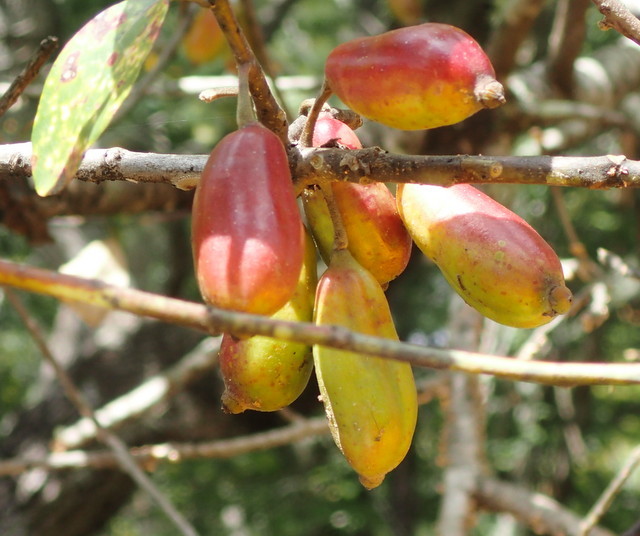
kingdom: Plantae
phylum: Tracheophyta
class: Magnoliopsida
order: Cornales
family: Nyssaceae
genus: Nyssa
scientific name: Nyssa ogeche
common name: Ogeechee tupelo
